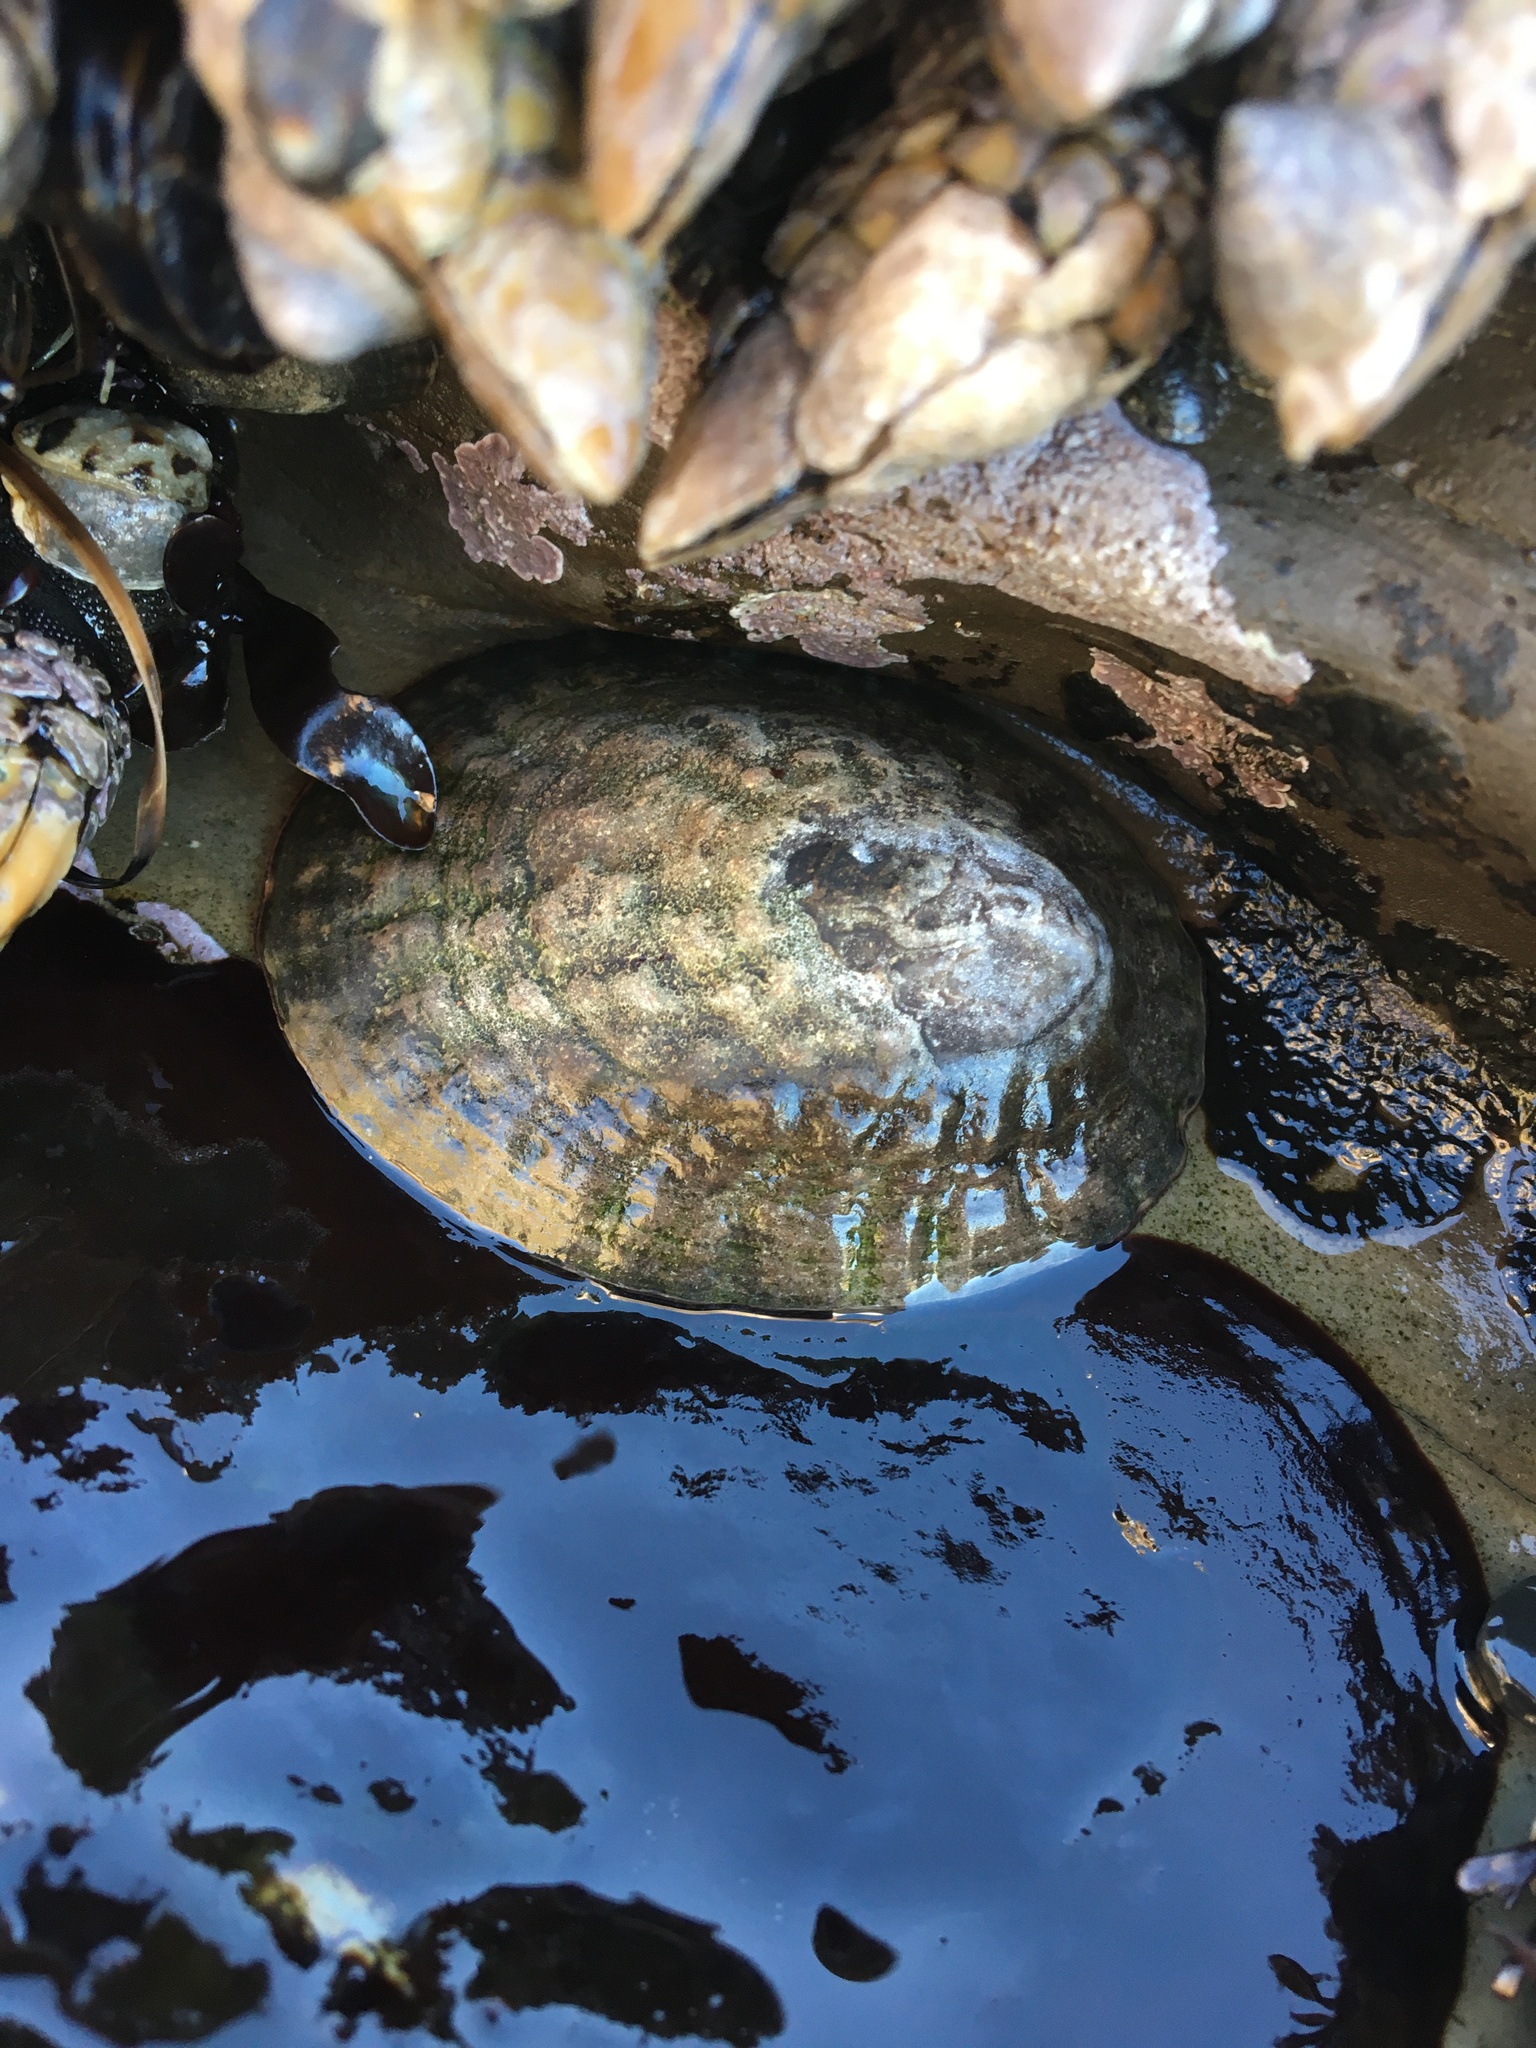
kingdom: Animalia
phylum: Mollusca
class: Gastropoda
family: Lottiidae
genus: Lottia
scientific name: Lottia gigantea
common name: Owl limpet
